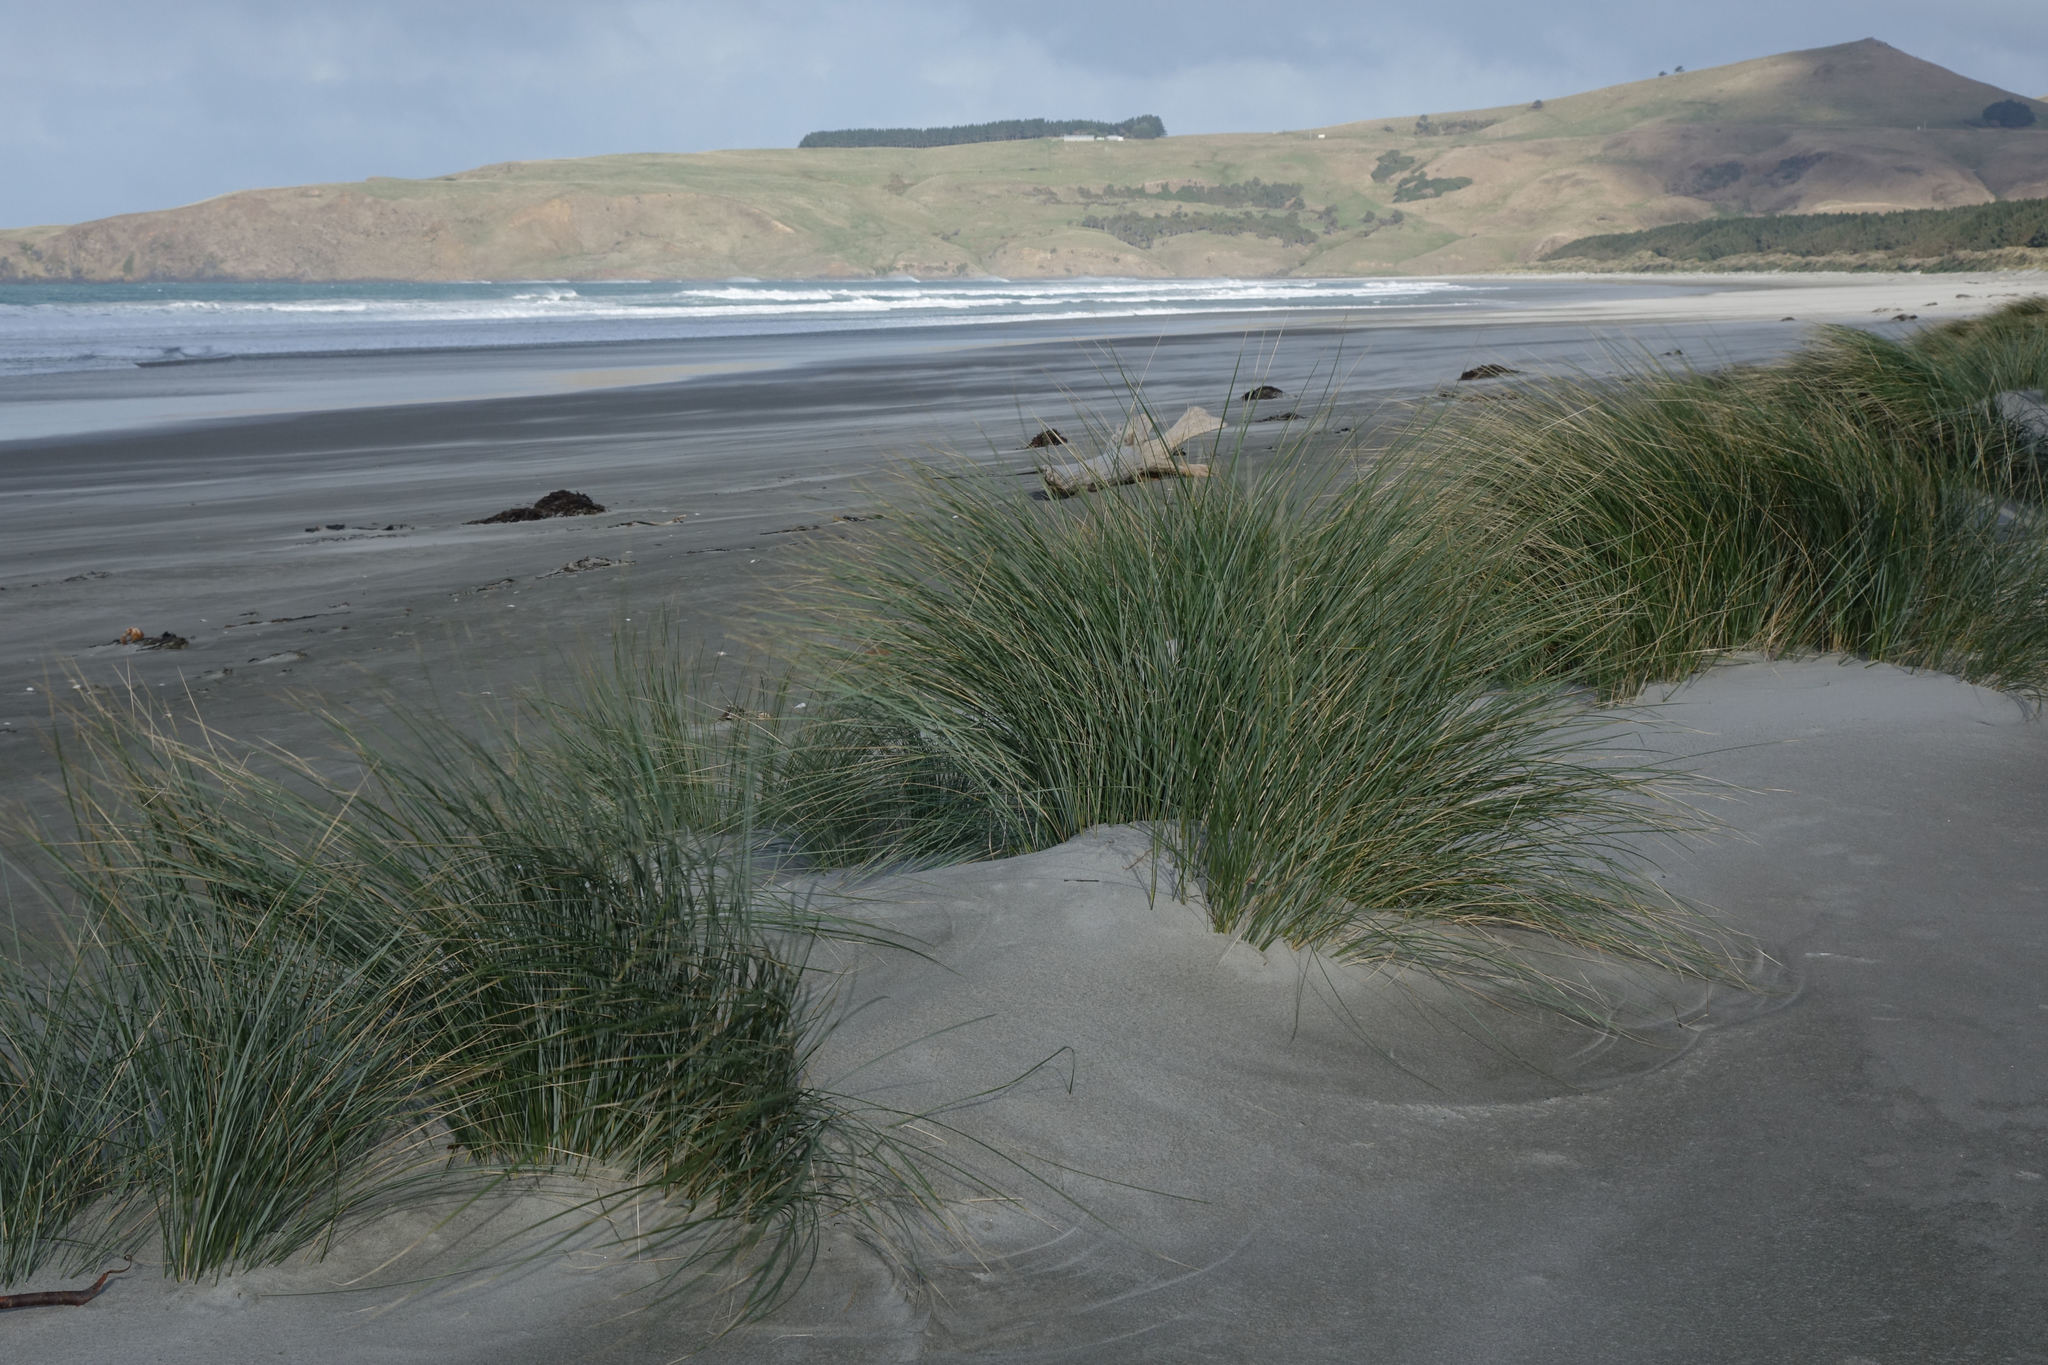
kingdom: Plantae
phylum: Tracheophyta
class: Liliopsida
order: Poales
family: Poaceae
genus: Calamagrostis
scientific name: Calamagrostis arenaria
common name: European beachgrass
